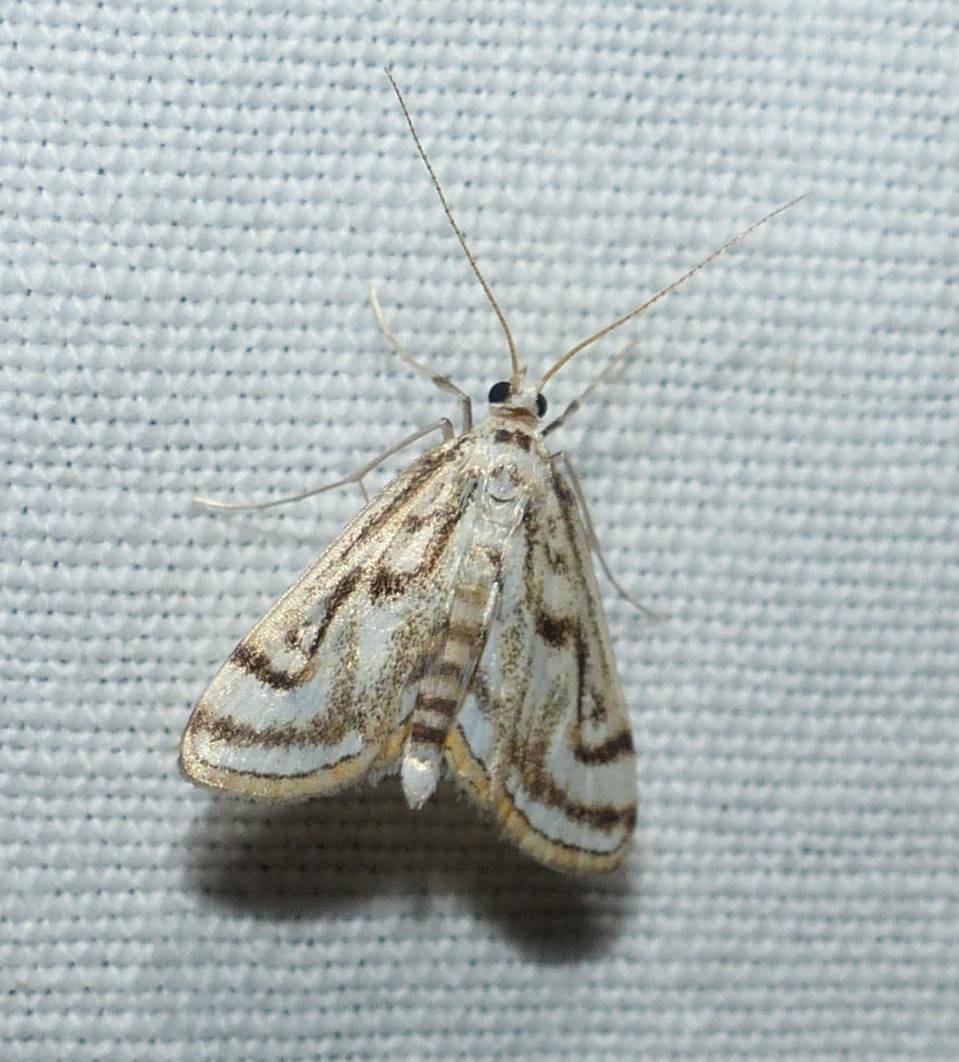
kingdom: Animalia
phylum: Arthropoda
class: Insecta
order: Lepidoptera
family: Crambidae
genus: Parapoynx
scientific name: Parapoynx badiusalis
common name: Chestnut-marked pondweed moth
